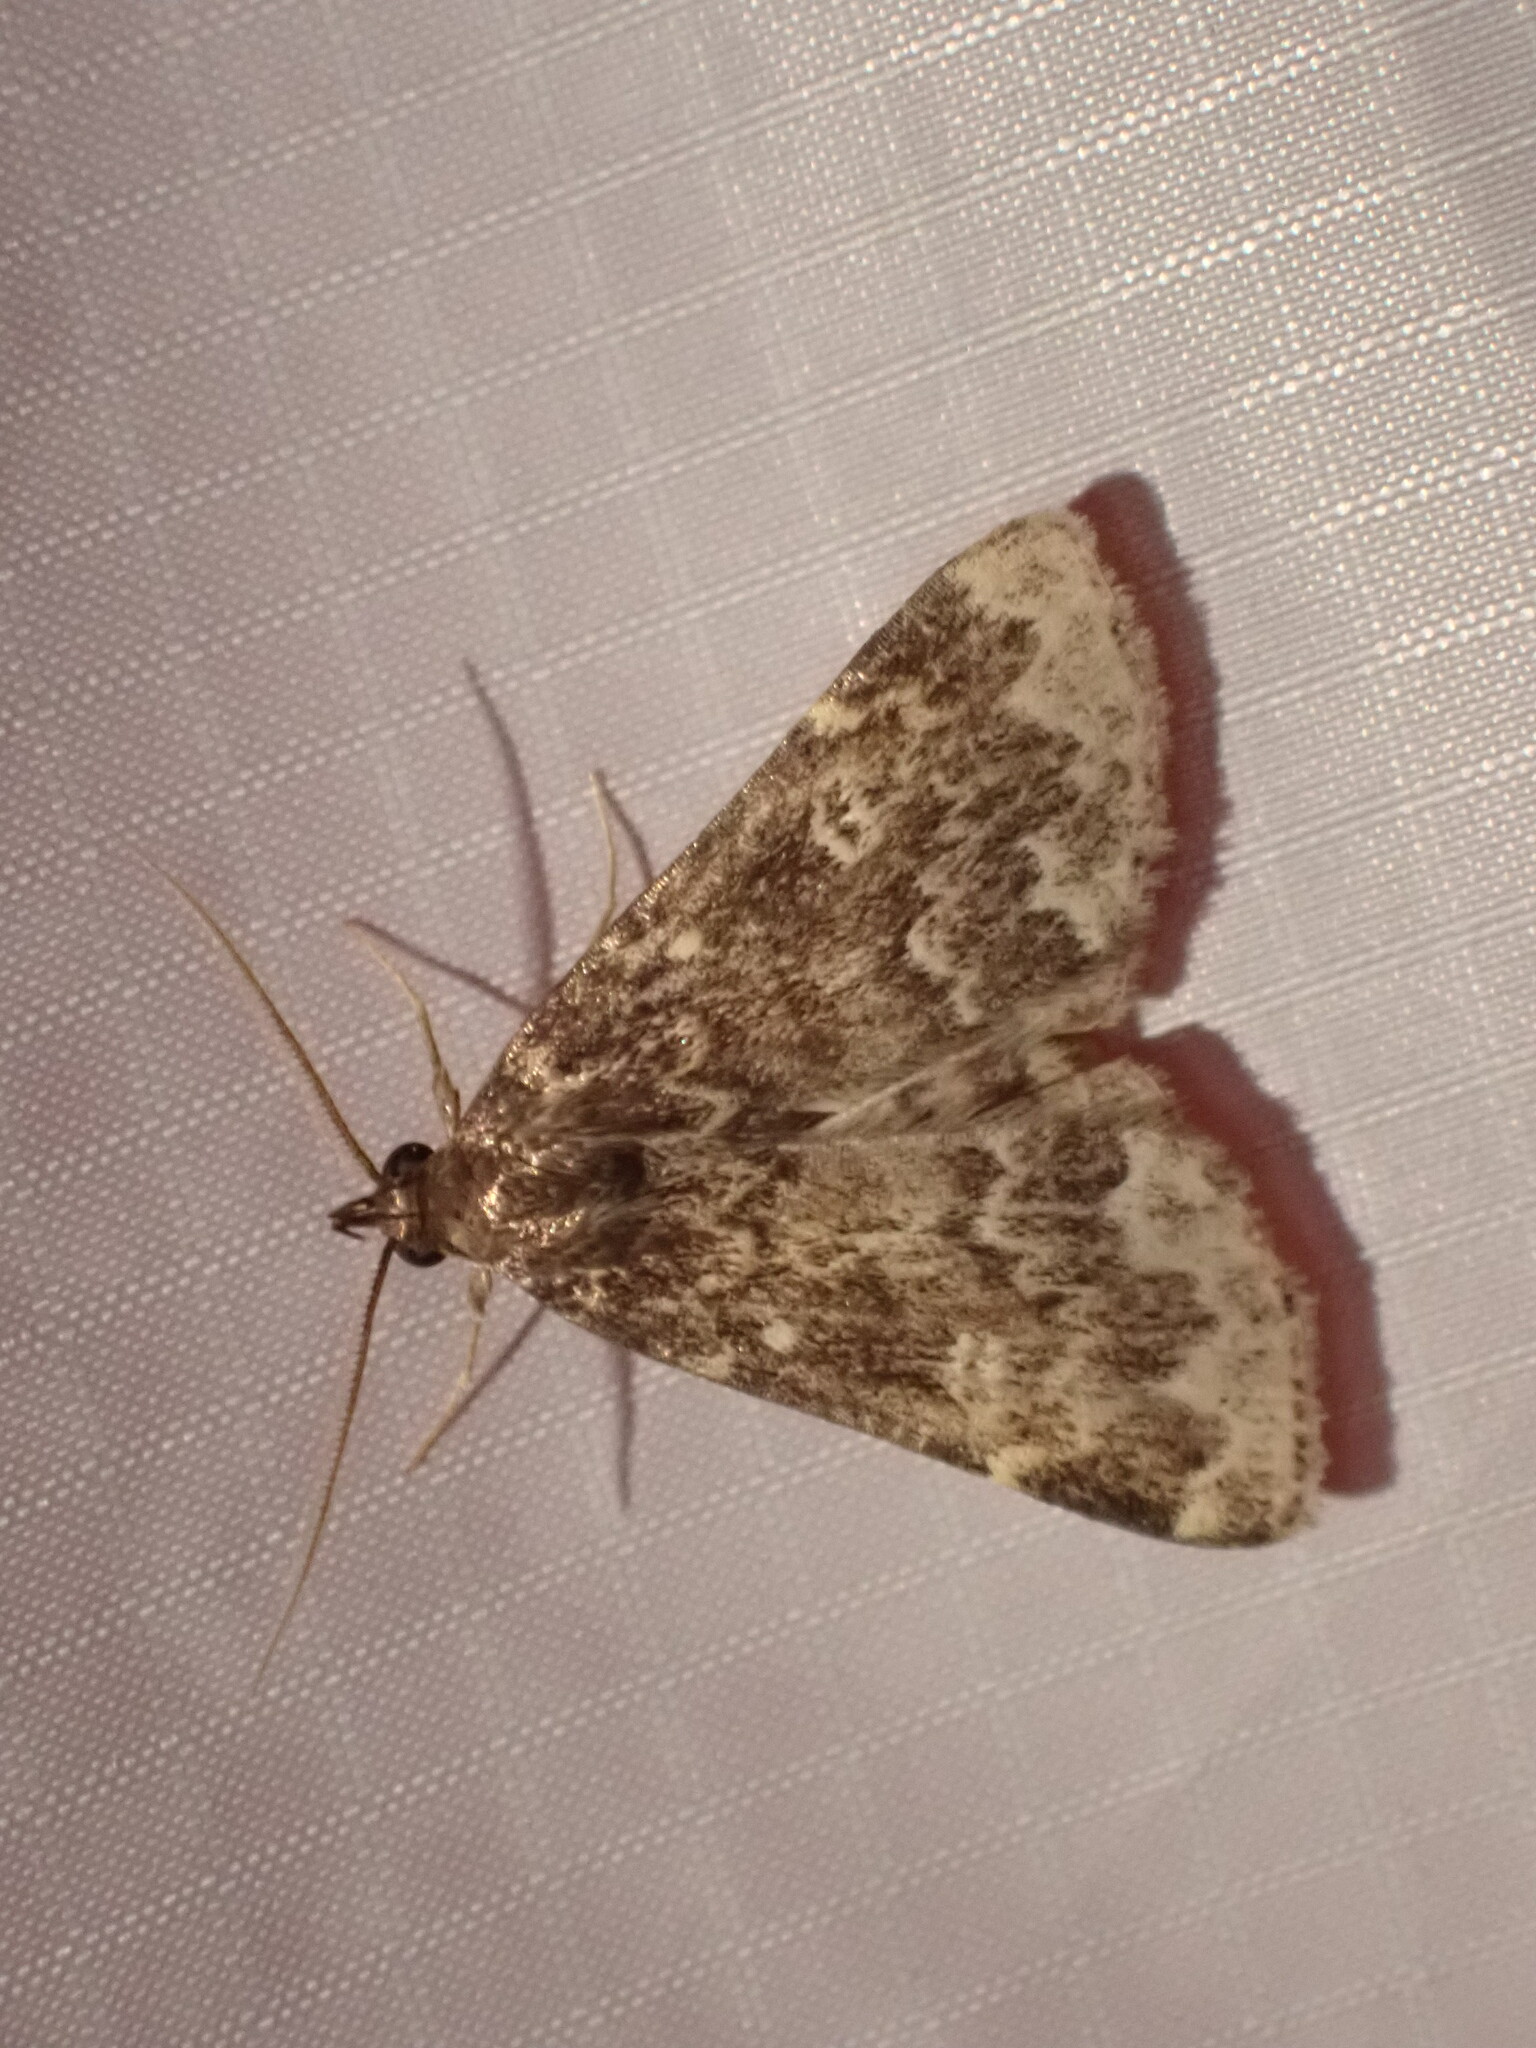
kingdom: Animalia
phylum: Arthropoda
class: Insecta
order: Lepidoptera
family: Erebidae
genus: Idia
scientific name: Idia lubricalis
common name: Twin-striped tabby
